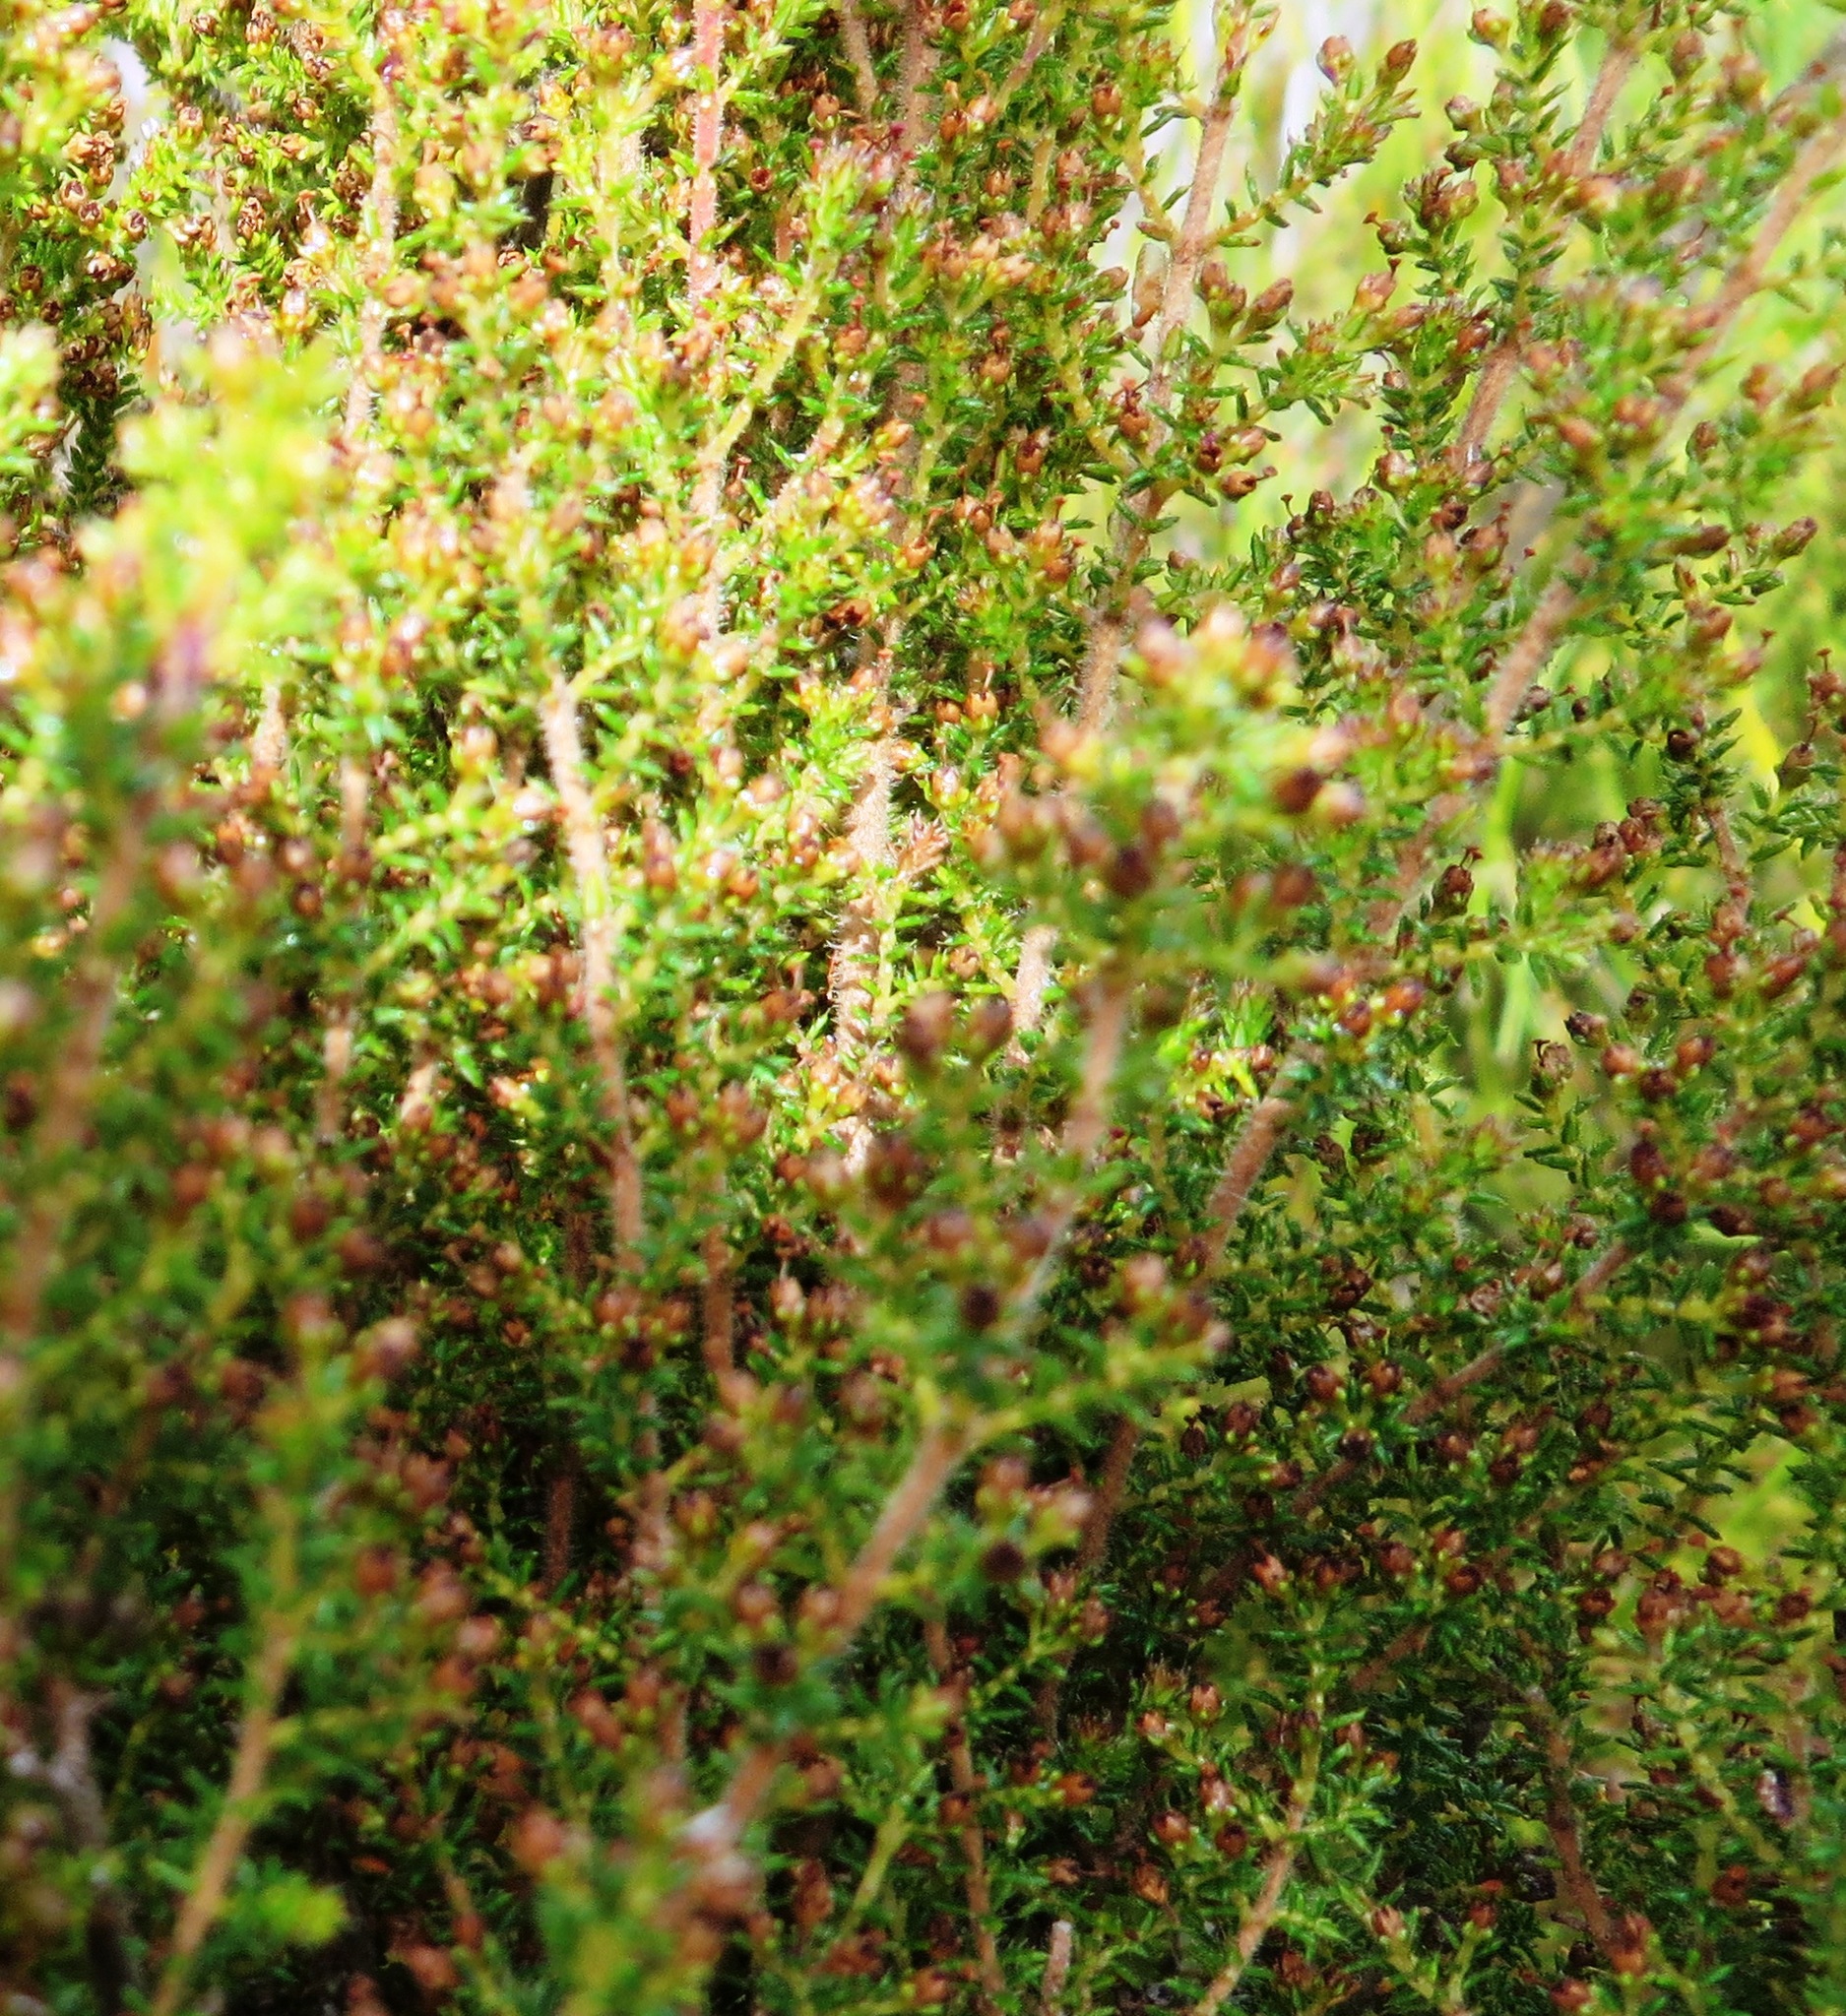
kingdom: Plantae
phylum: Tracheophyta
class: Magnoliopsida
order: Ericales
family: Ericaceae
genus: Erica
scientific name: Erica rigidula
